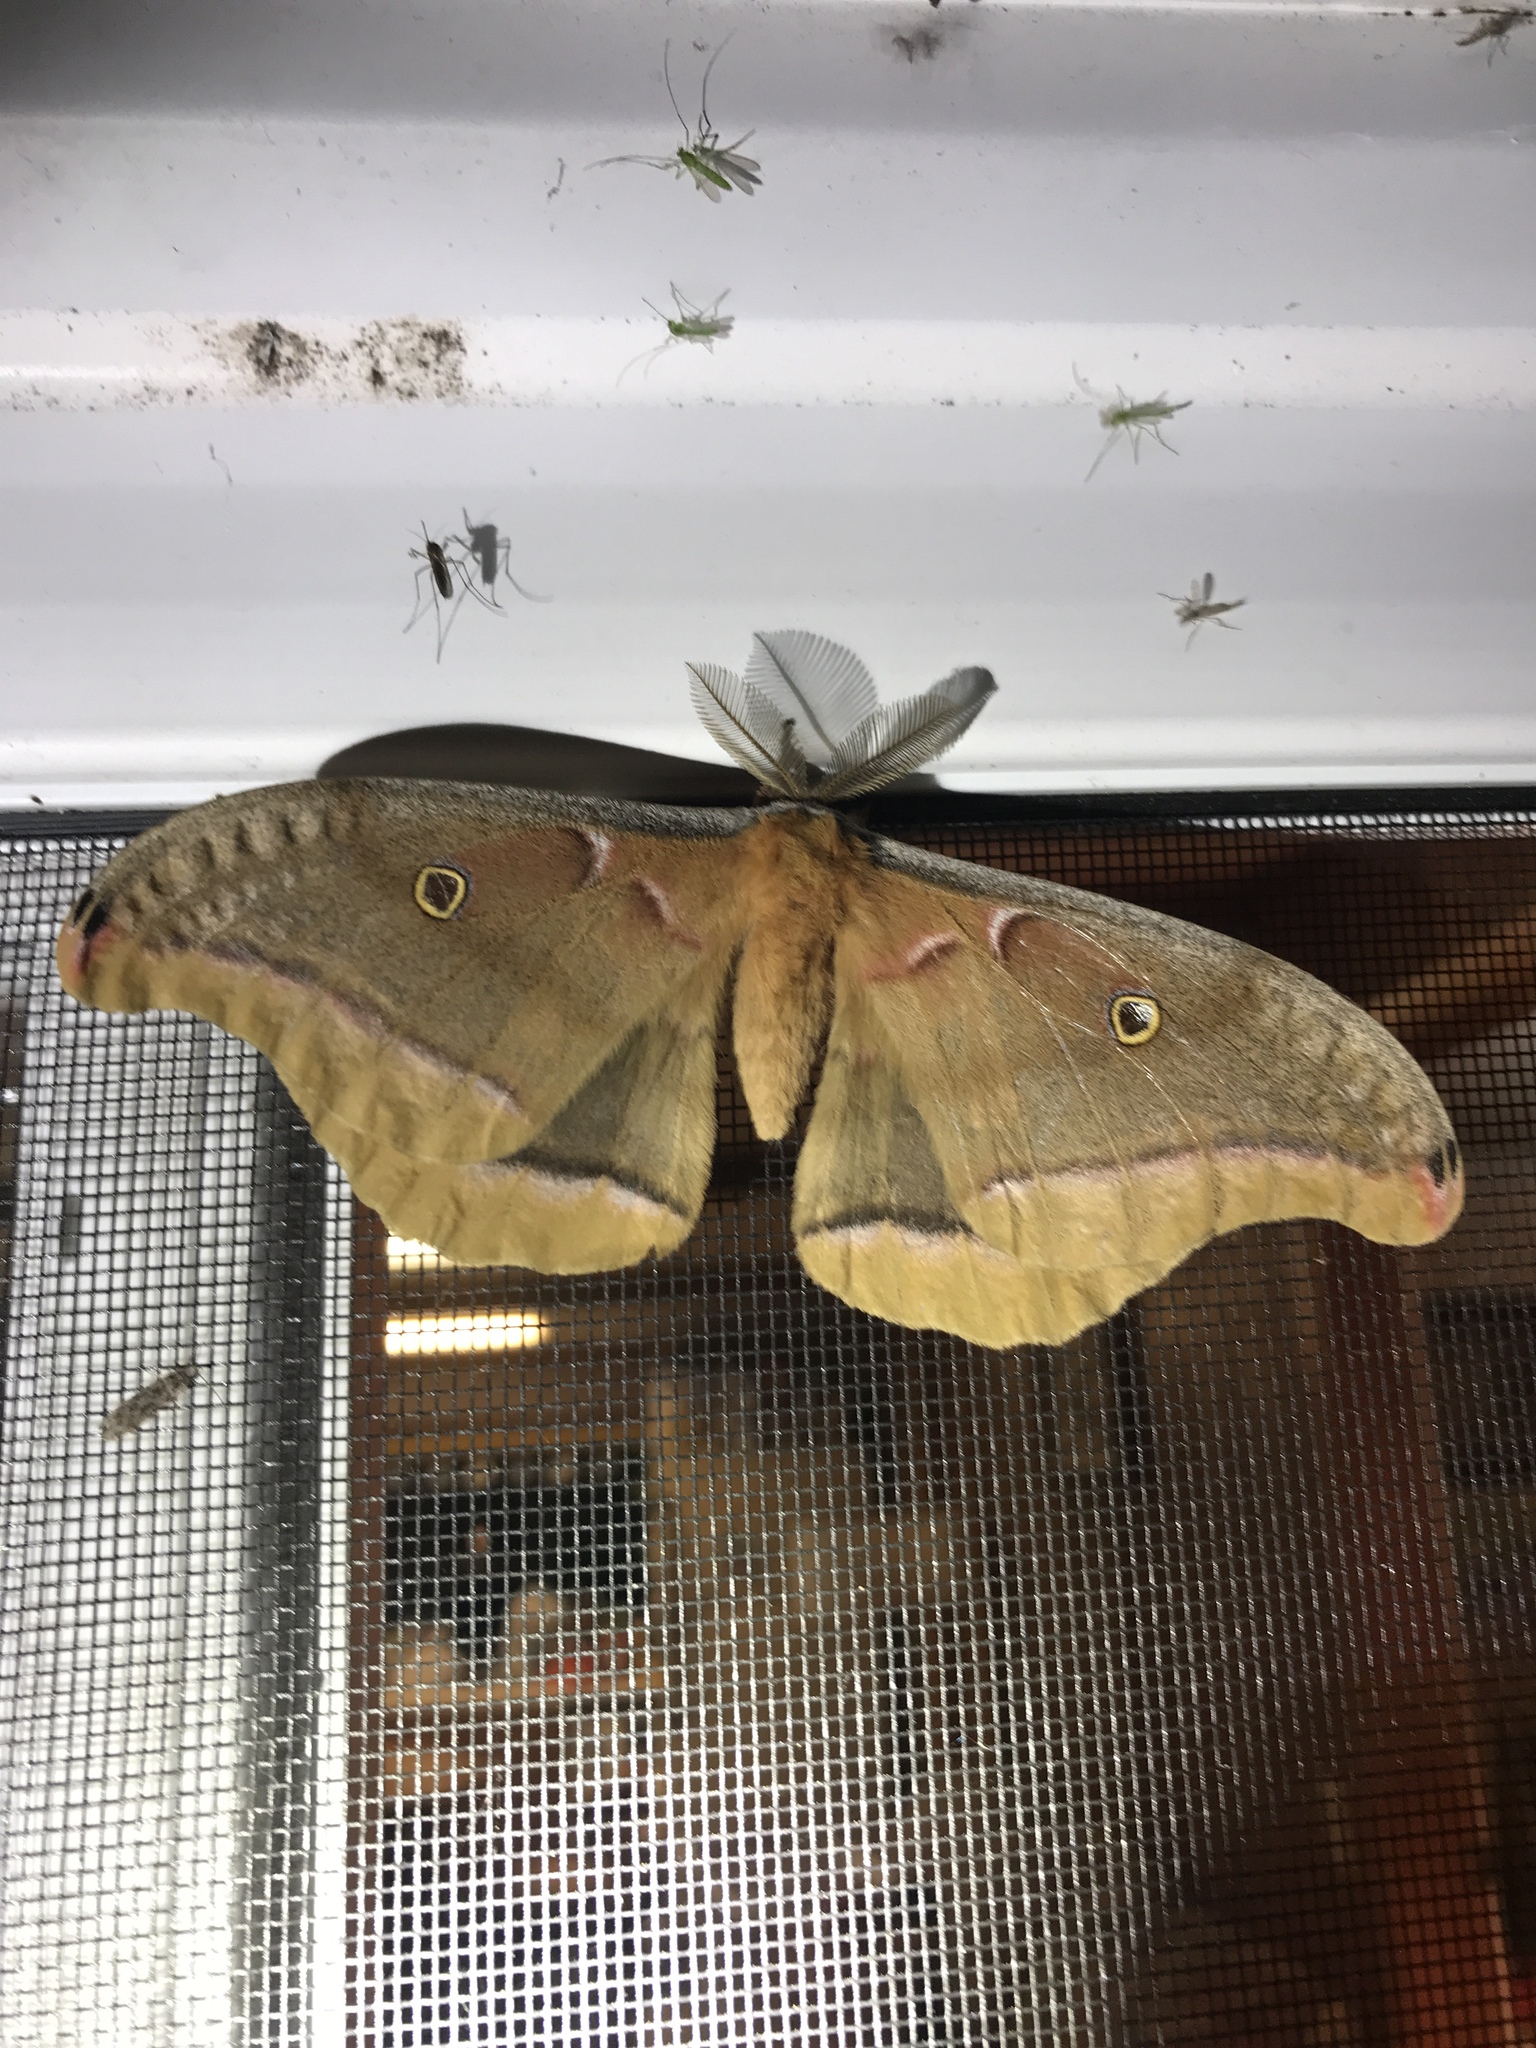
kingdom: Animalia
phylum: Arthropoda
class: Insecta
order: Lepidoptera
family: Saturniidae
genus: Antheraea
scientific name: Antheraea polyphemus
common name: Polyphemus moth
